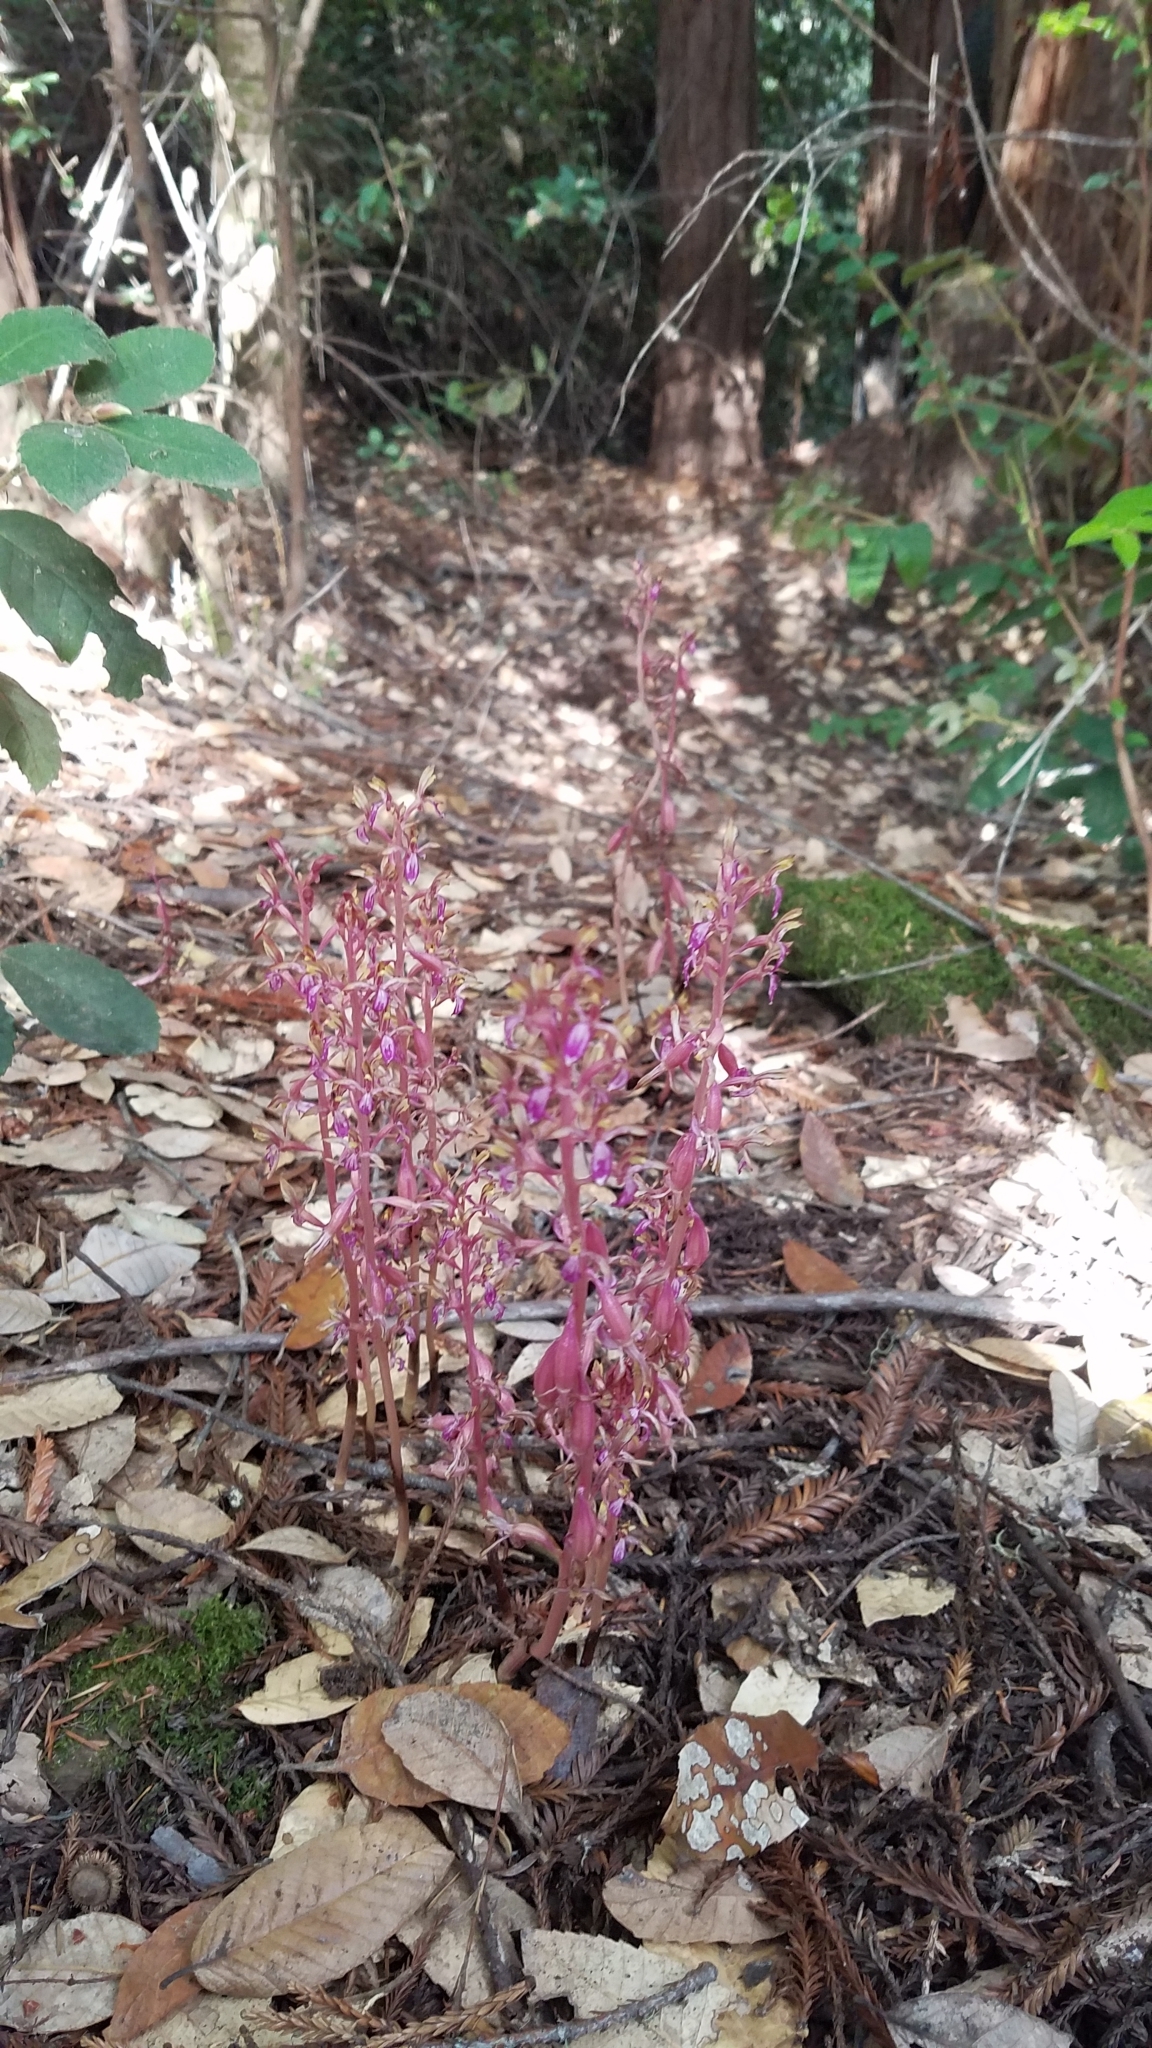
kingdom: Plantae
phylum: Tracheophyta
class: Liliopsida
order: Asparagales
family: Orchidaceae
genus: Corallorhiza
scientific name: Corallorhiza mertensiana
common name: Pacific coralroot
